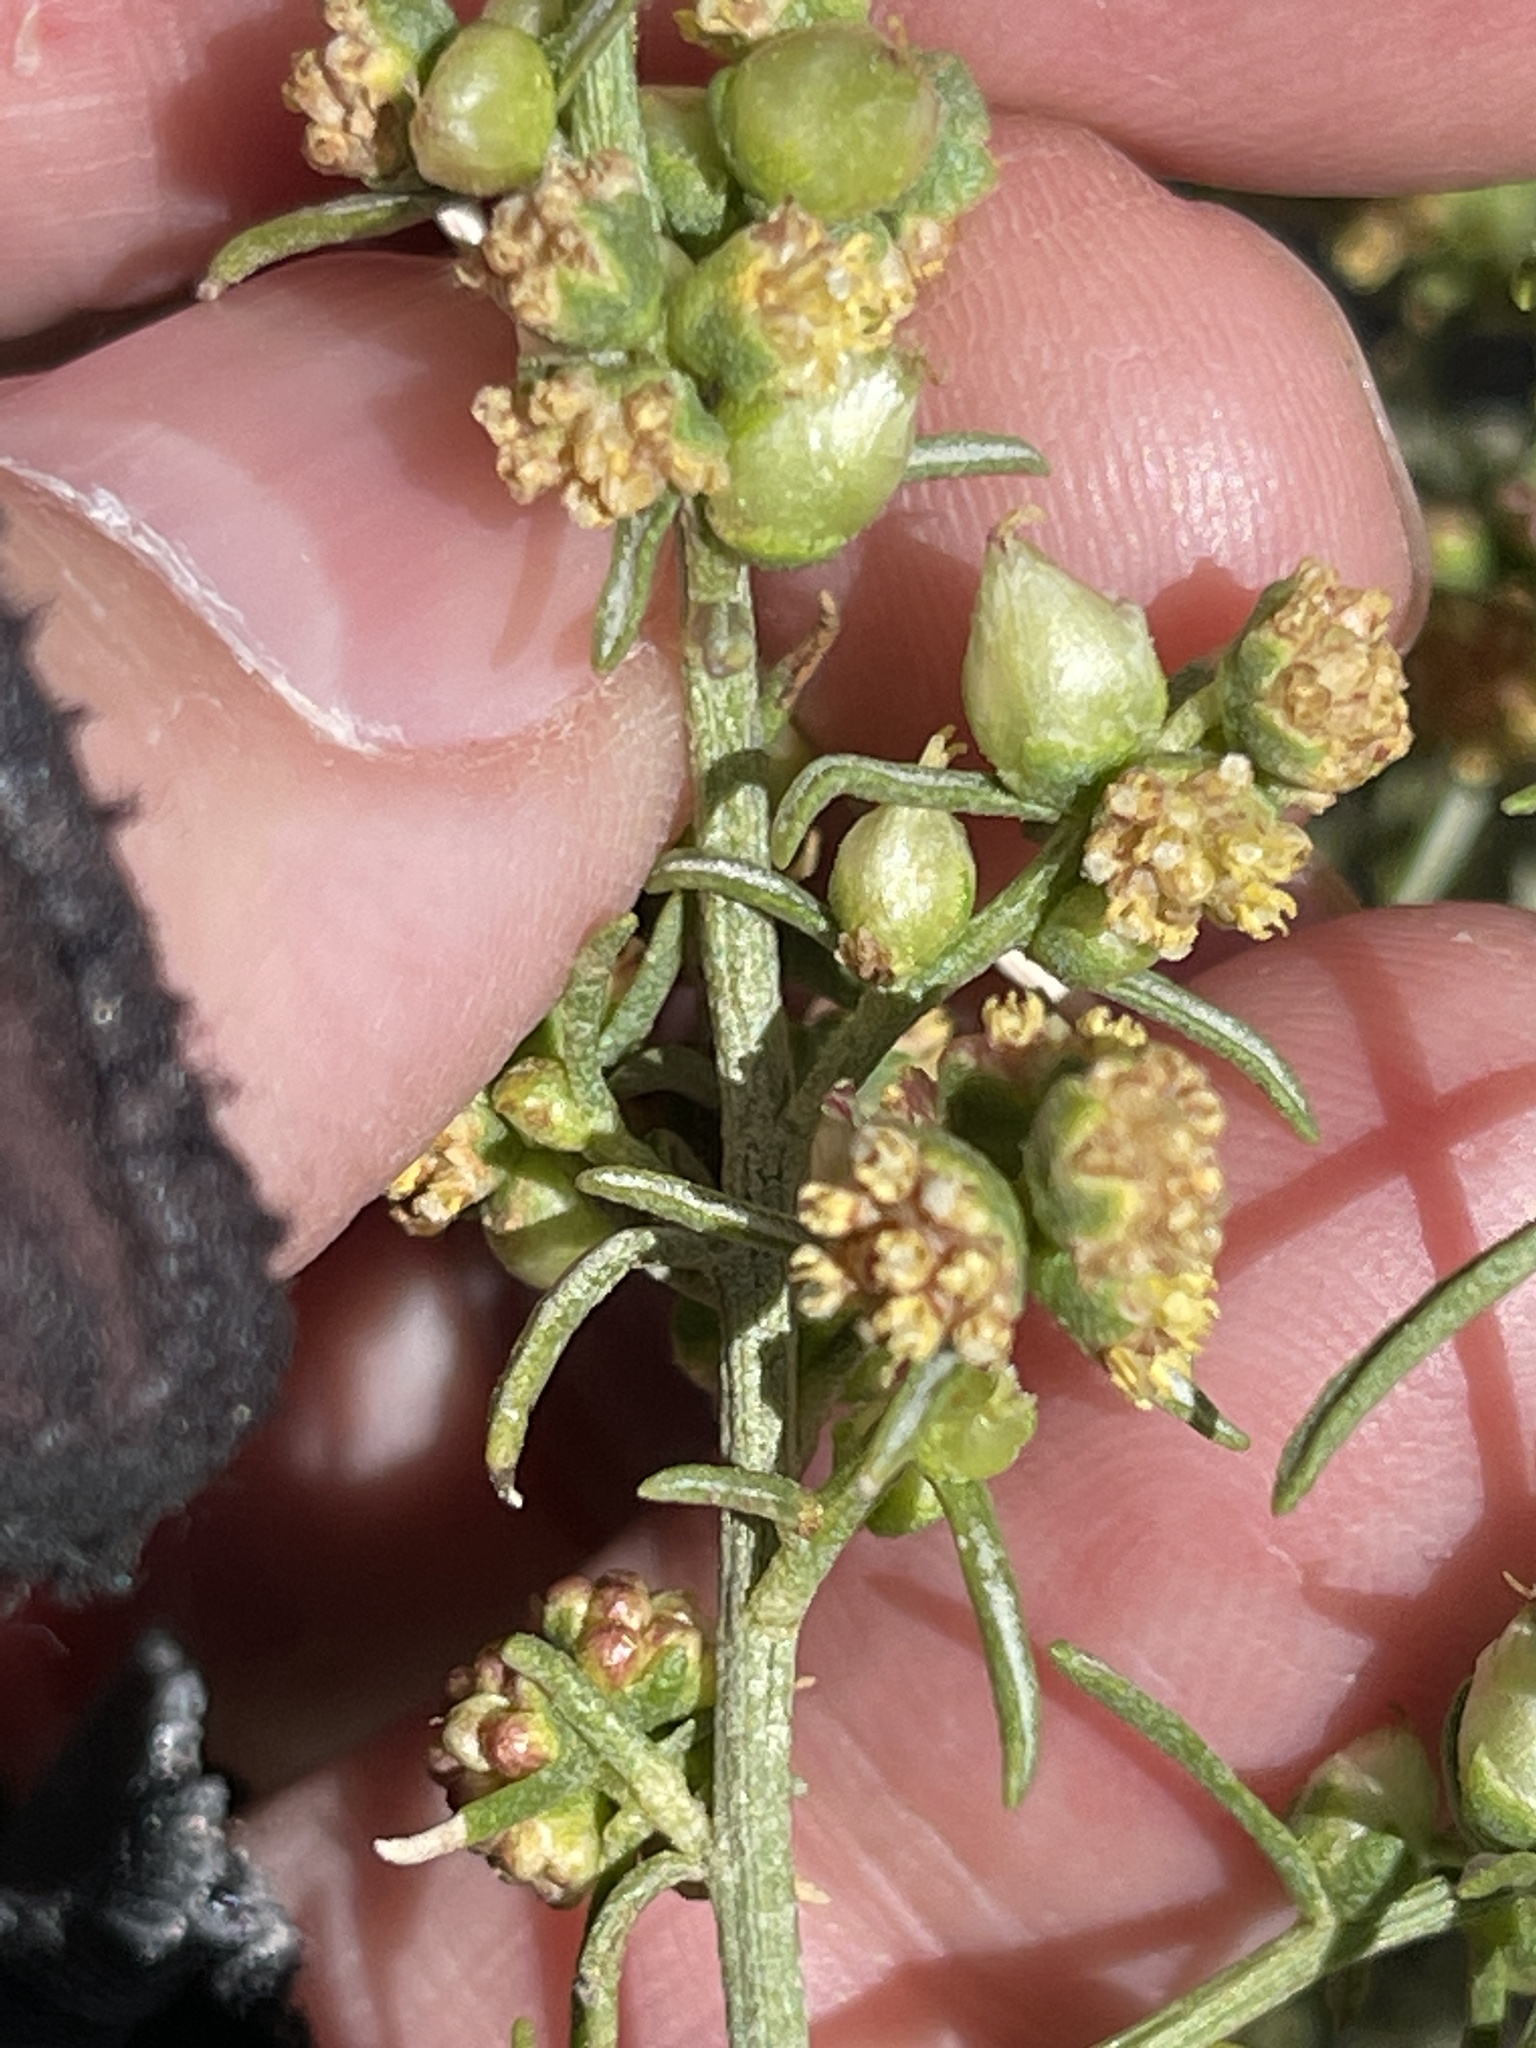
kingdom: Plantae
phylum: Tracheophyta
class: Magnoliopsida
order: Asterales
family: Asteraceae
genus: Ambrosia
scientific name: Ambrosia salsola
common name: Burrobrush
